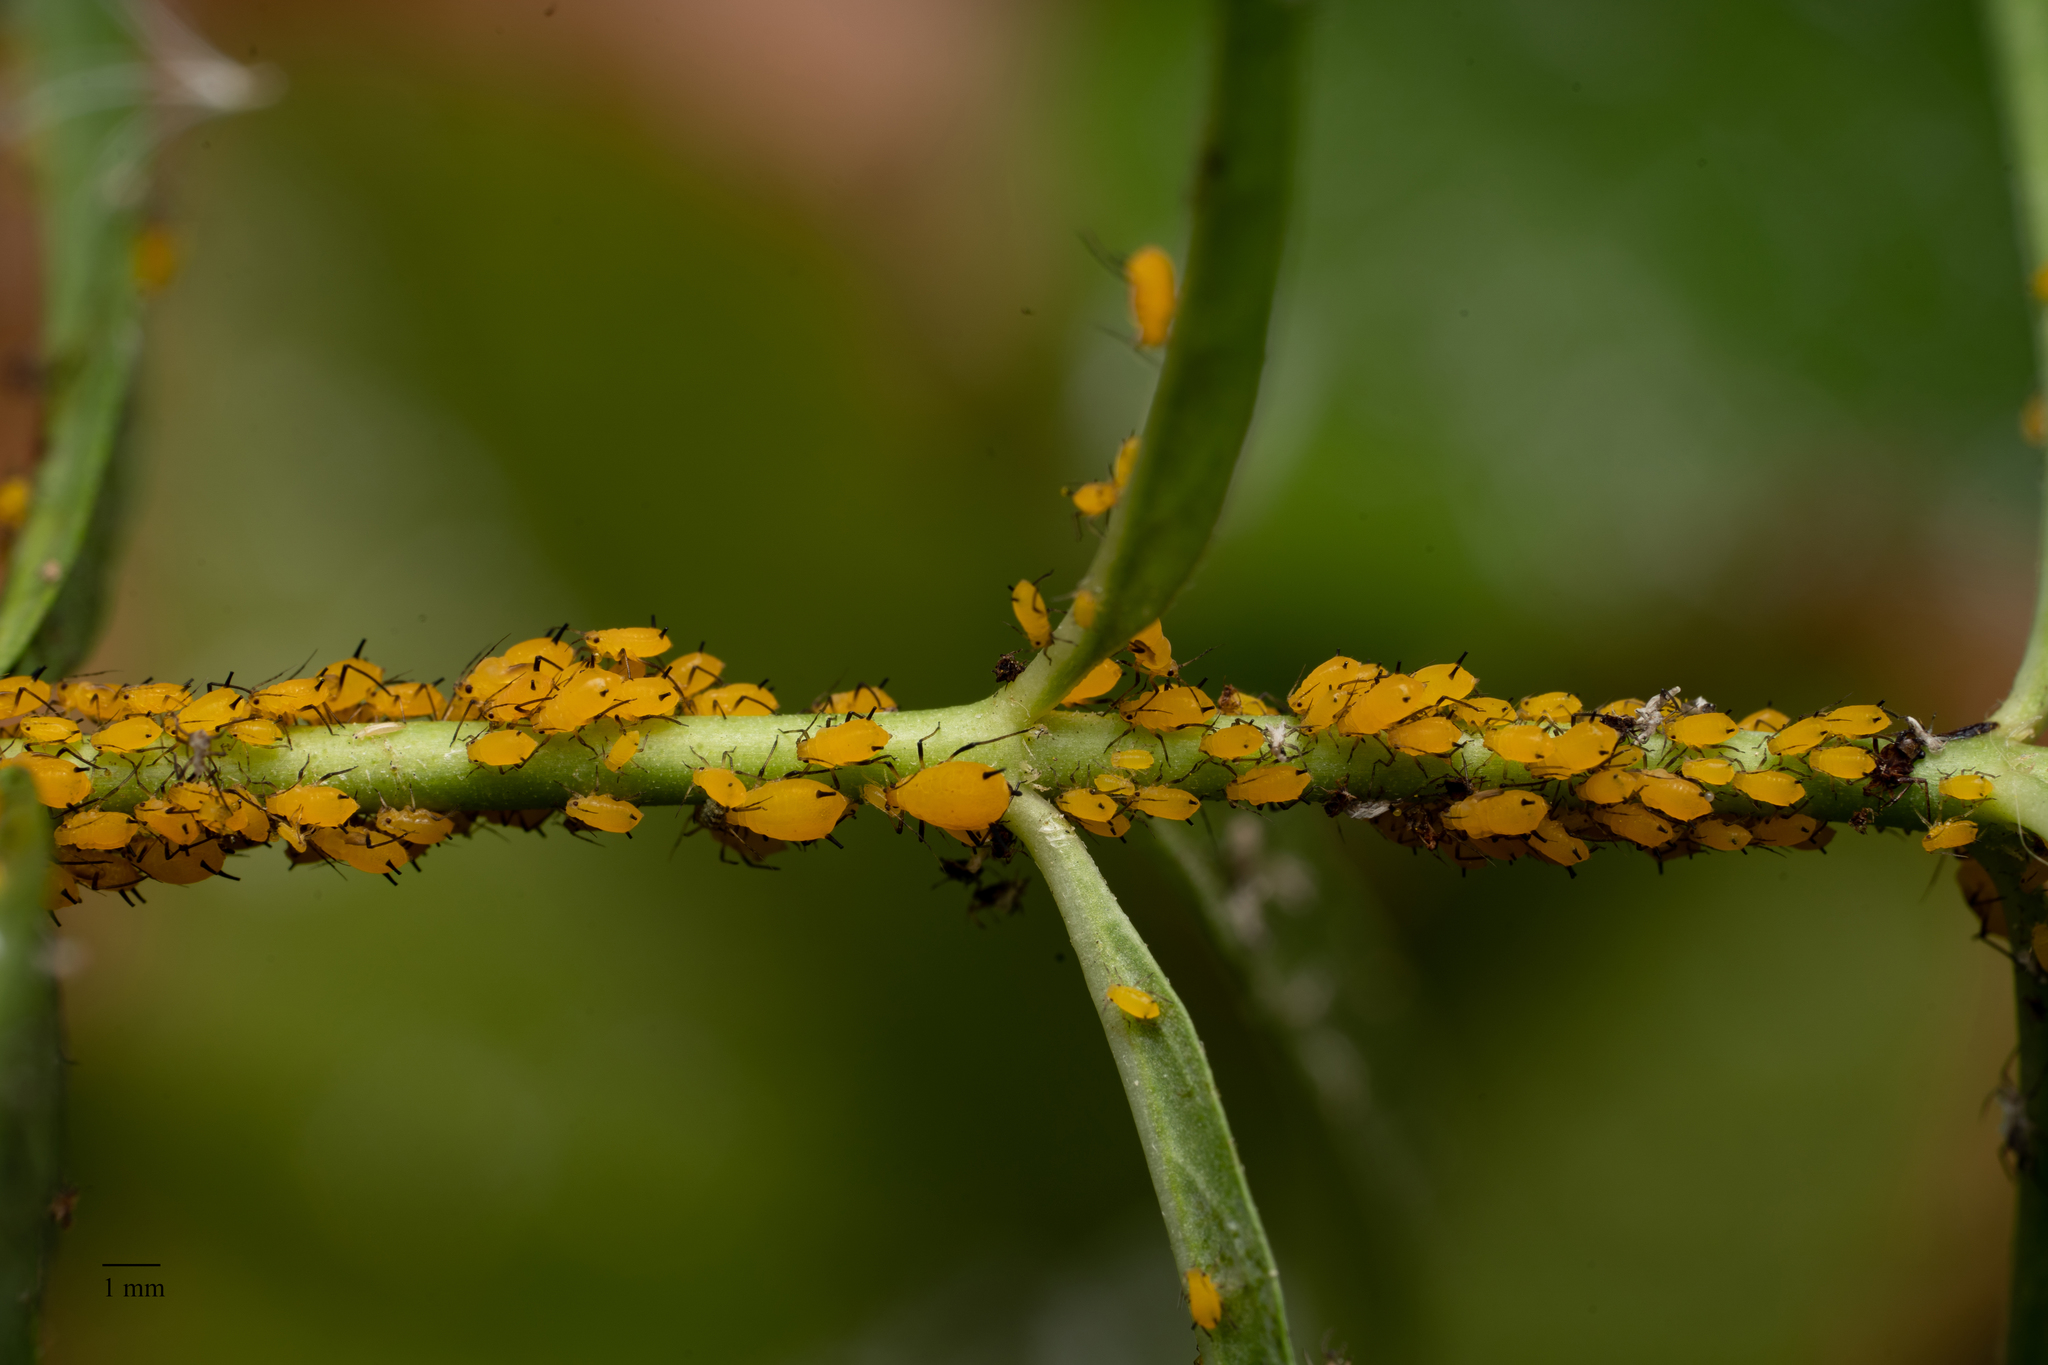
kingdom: Animalia
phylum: Arthropoda
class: Insecta
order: Hemiptera
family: Aphididae
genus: Aphis
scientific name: Aphis nerii
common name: Oleander aphid
